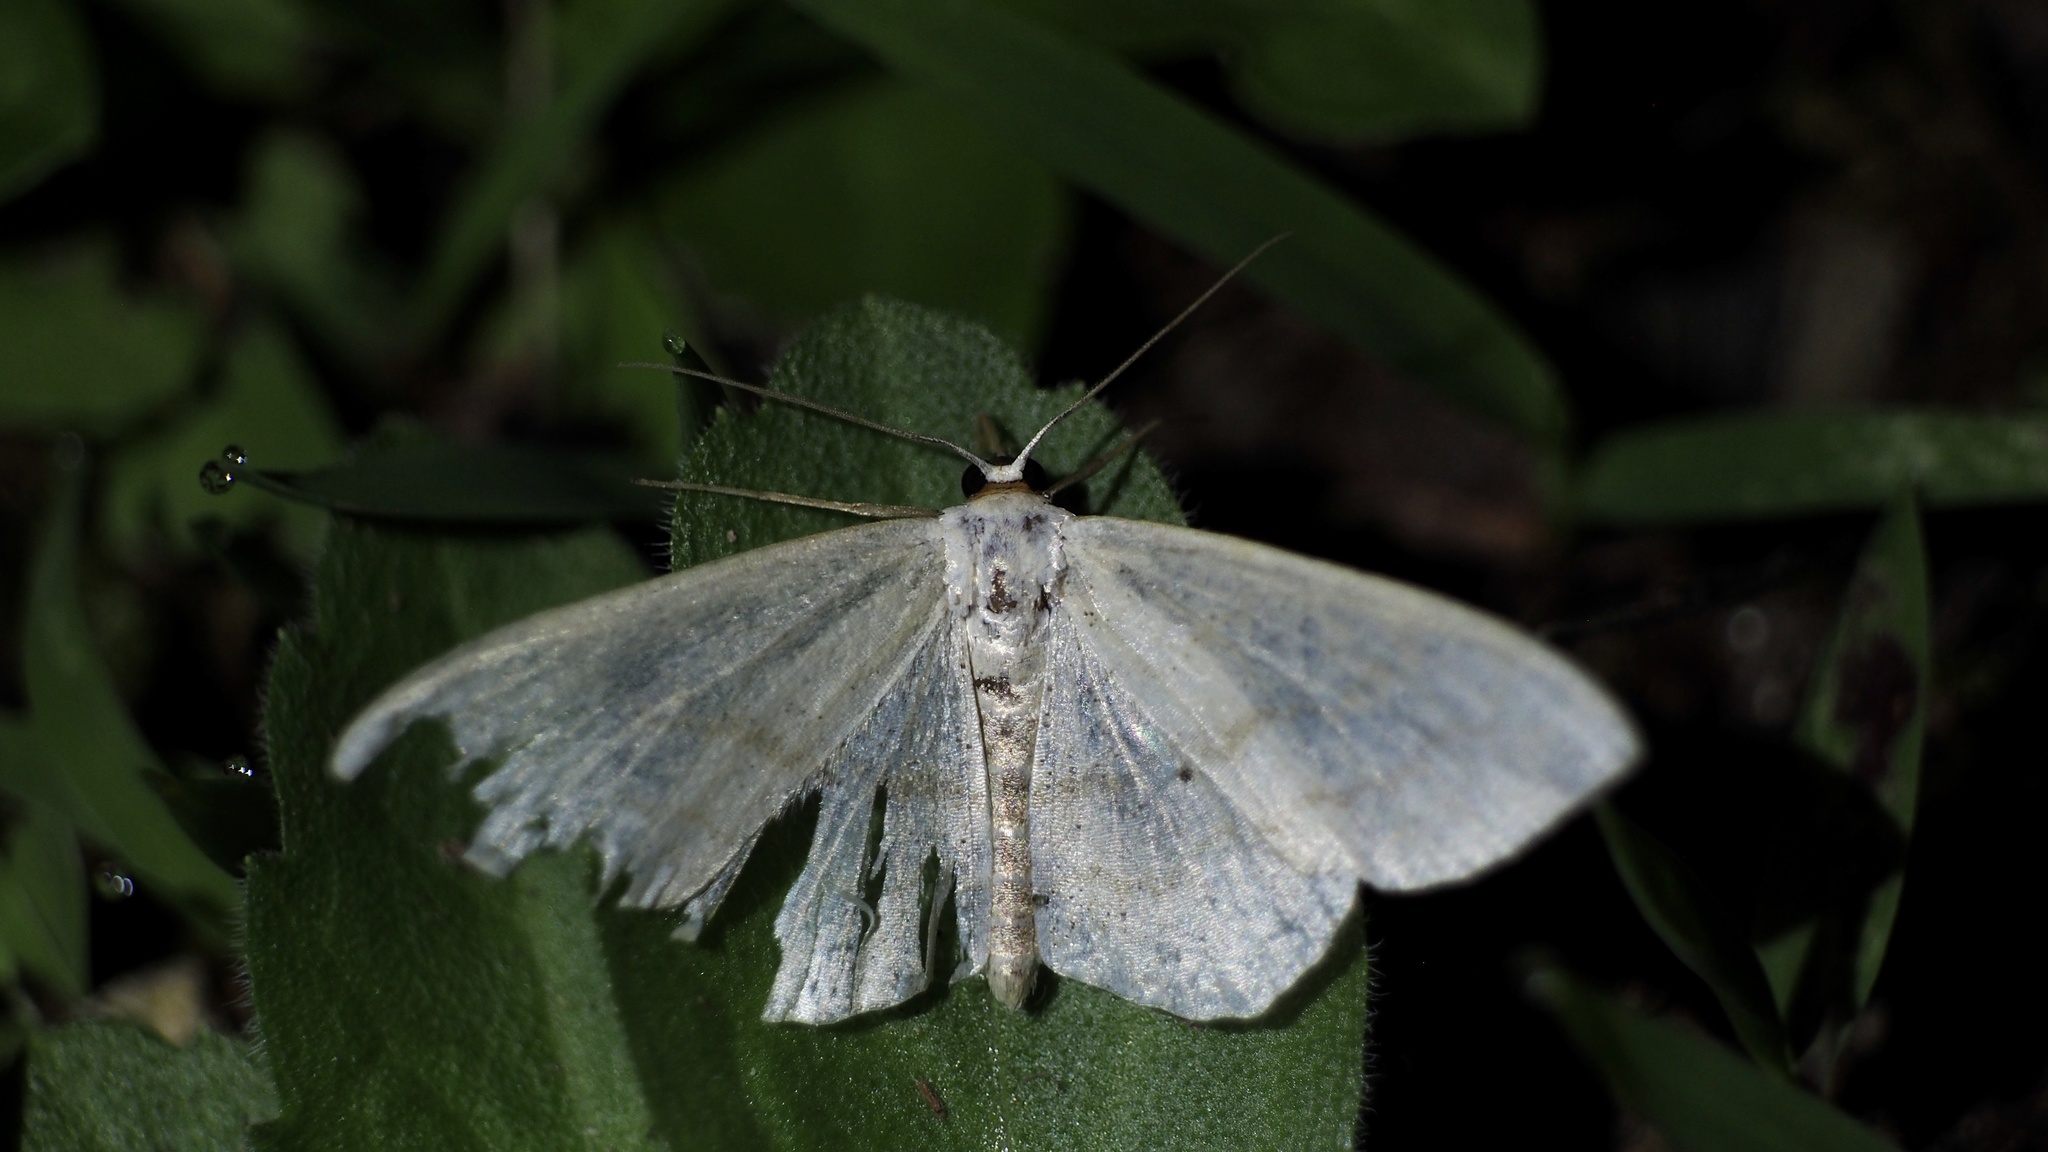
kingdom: Animalia
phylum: Arthropoda
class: Insecta
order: Lepidoptera
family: Geometridae
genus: Scopula
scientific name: Scopula ignobilis
